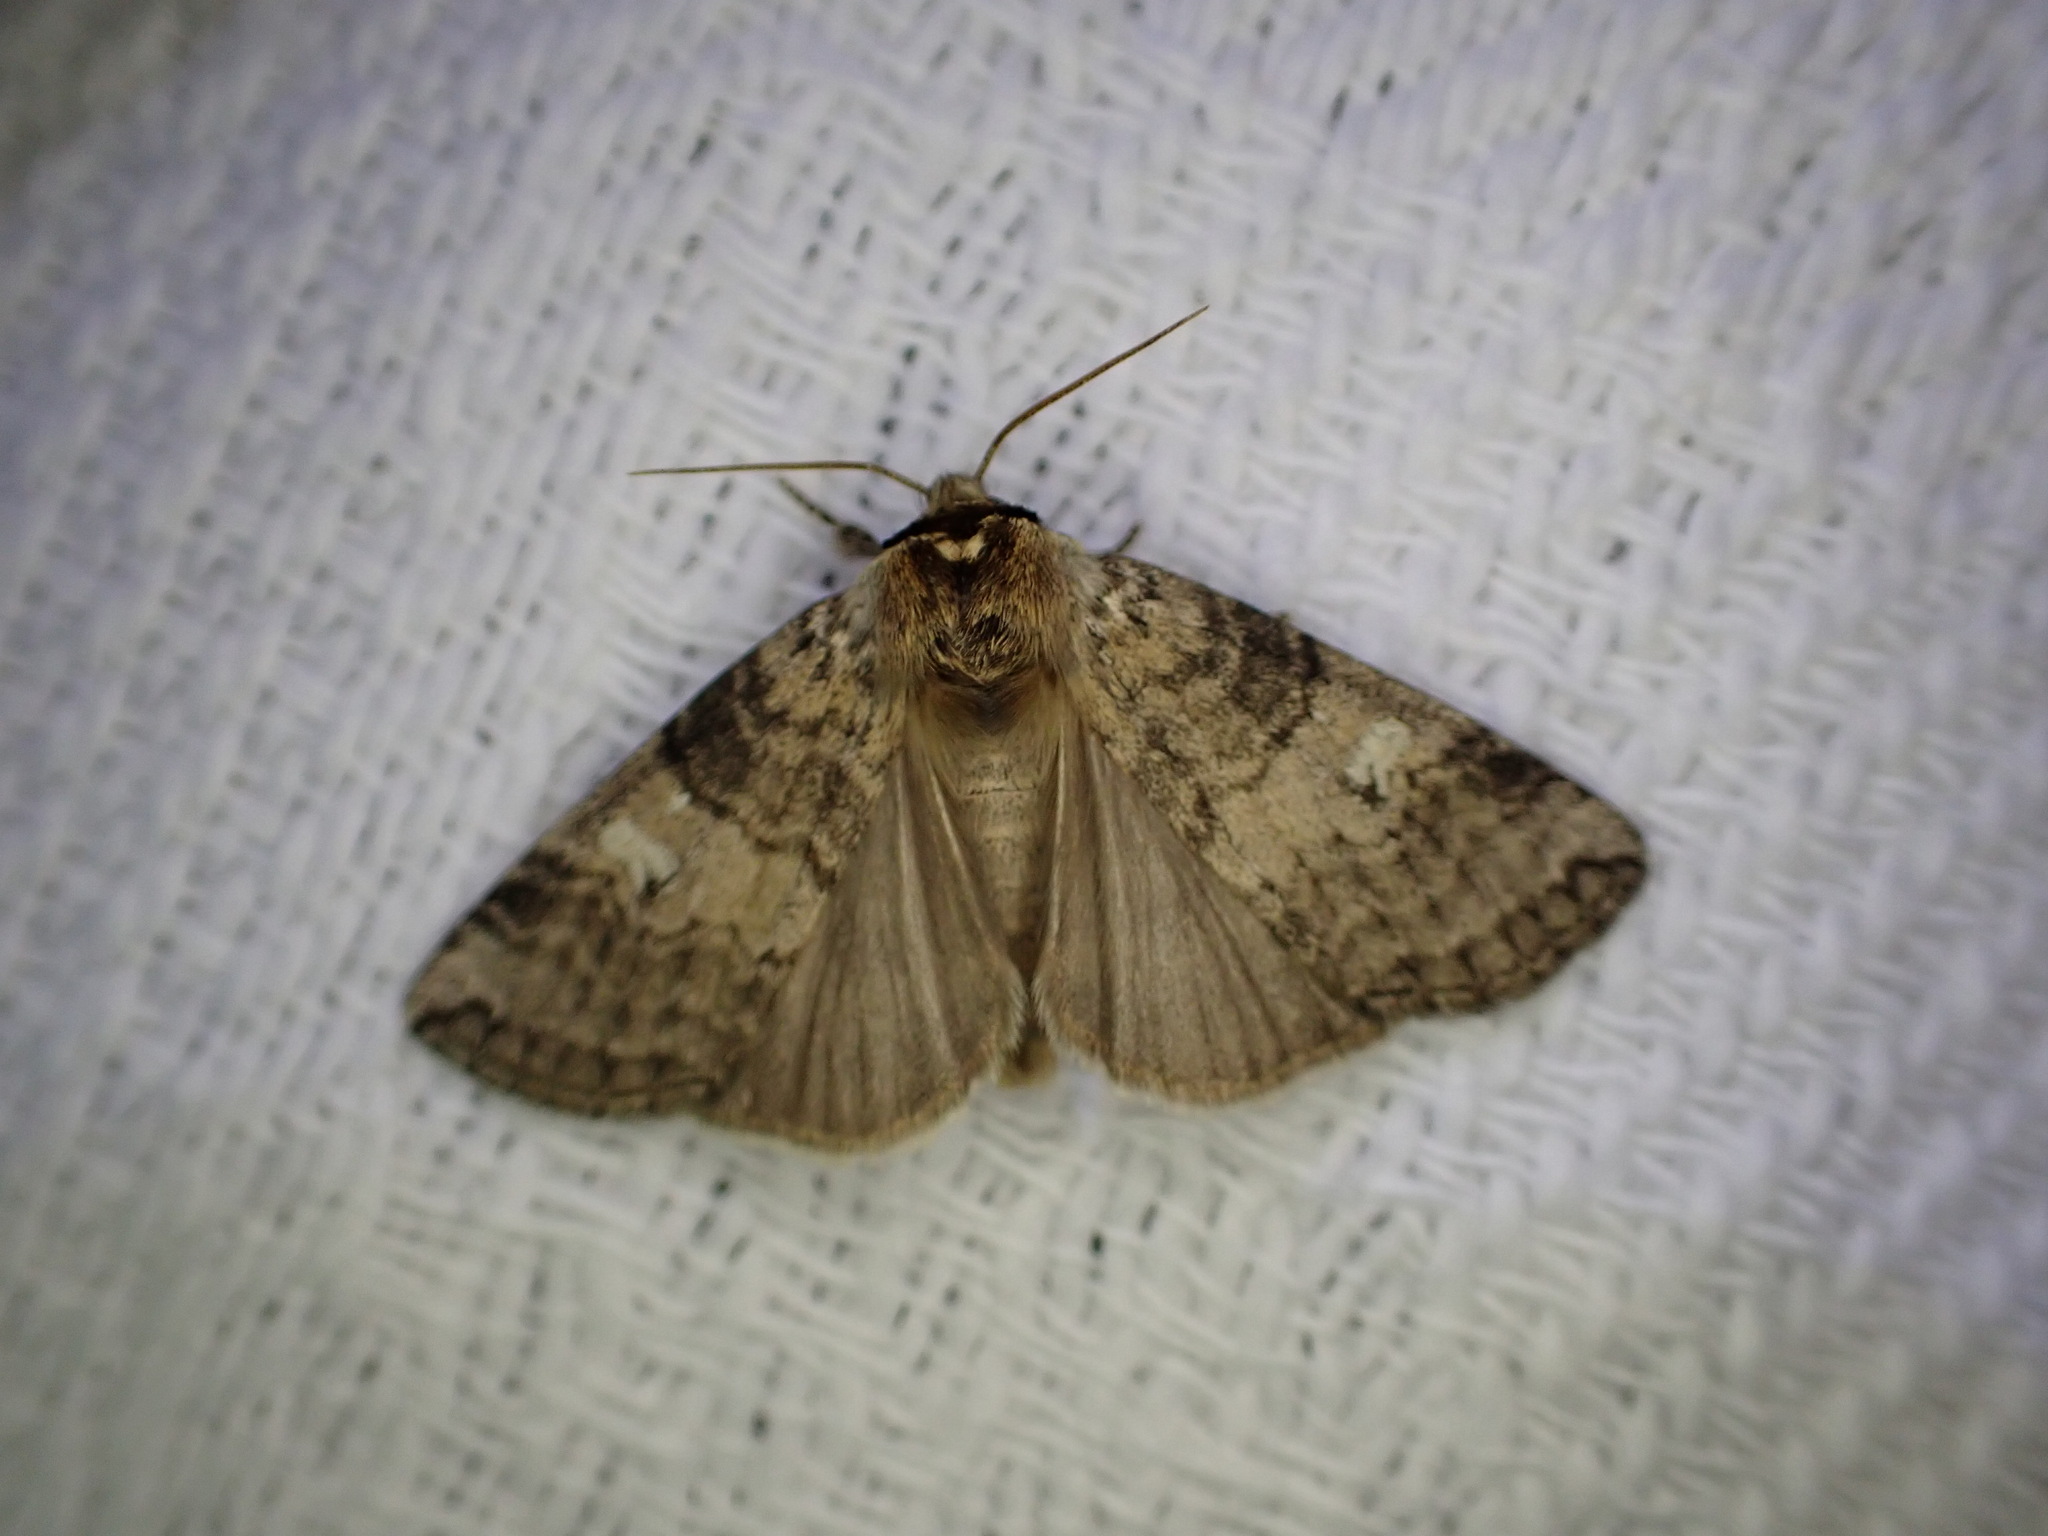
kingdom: Animalia
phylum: Arthropoda
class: Insecta
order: Lepidoptera
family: Drepanidae
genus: Tethea
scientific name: Tethea or
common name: Poplar lutestring
